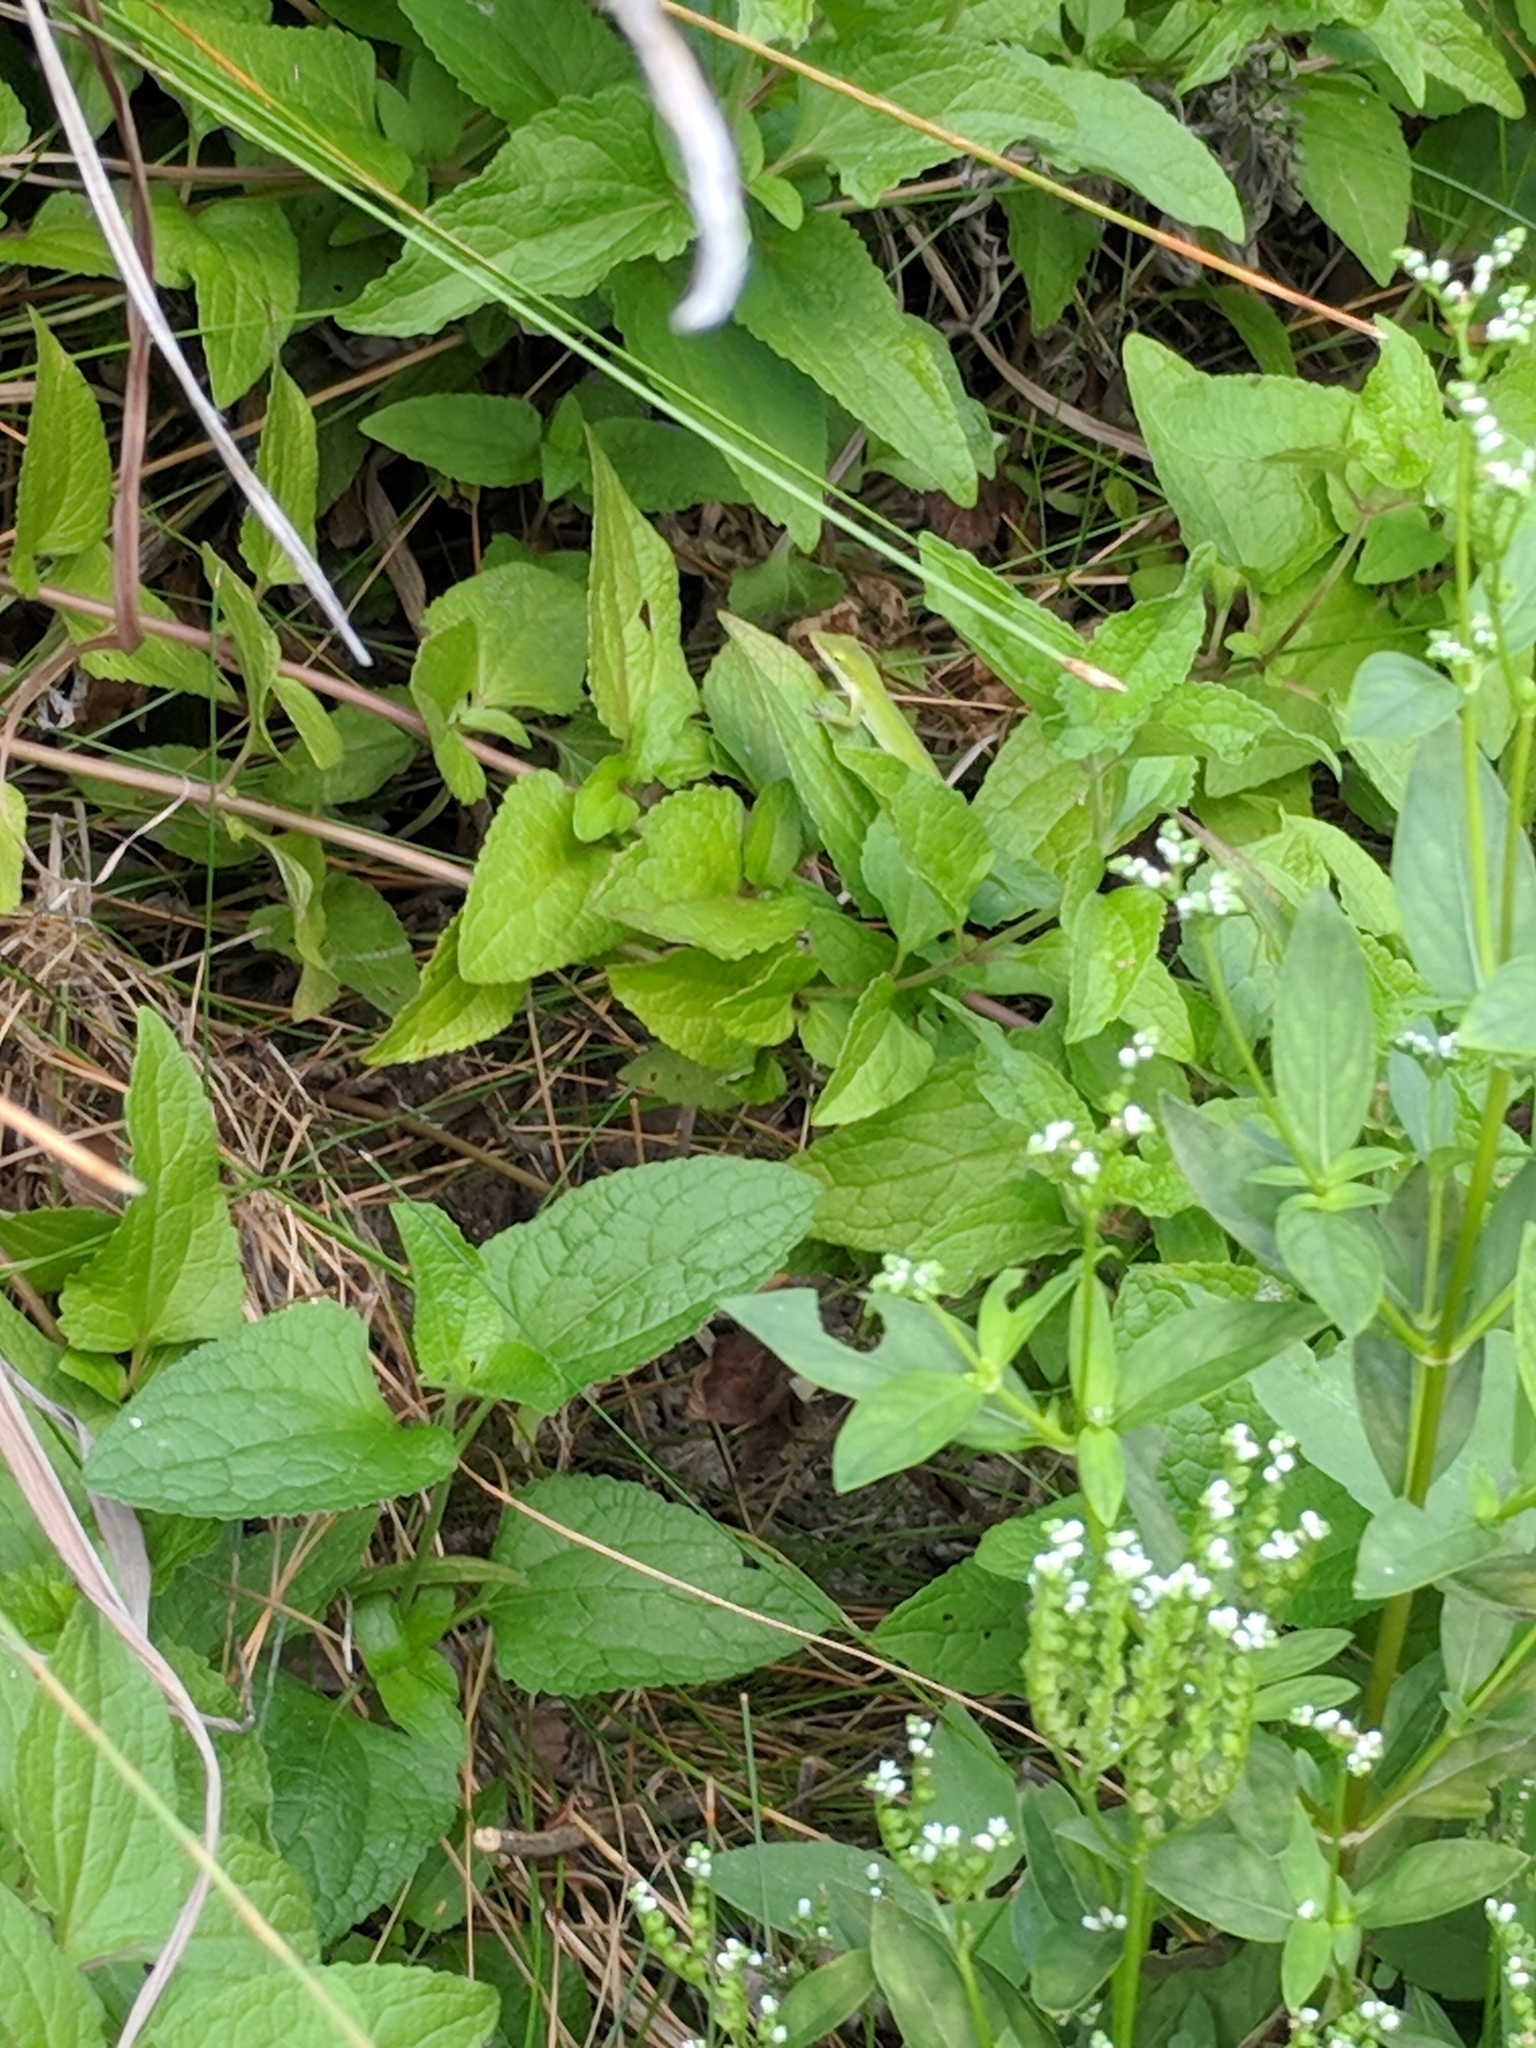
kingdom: Animalia
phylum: Chordata
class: Squamata
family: Dactyloidae
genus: Anolis
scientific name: Anolis carolinensis
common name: Green anole
